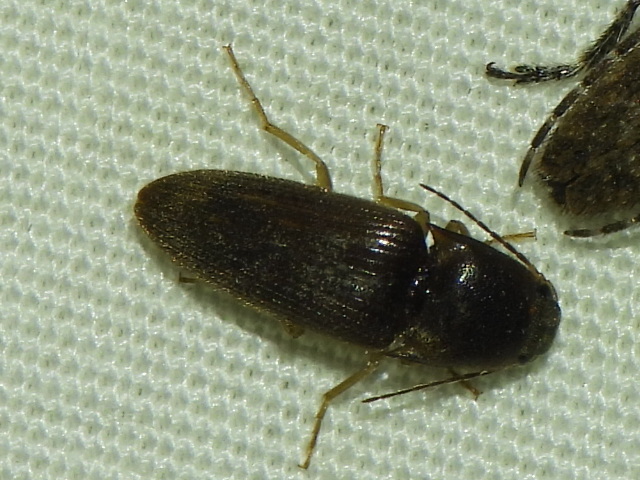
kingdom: Animalia
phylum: Arthropoda
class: Insecta
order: Coleoptera
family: Elateridae
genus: Monocrepidius
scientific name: Monocrepidius
